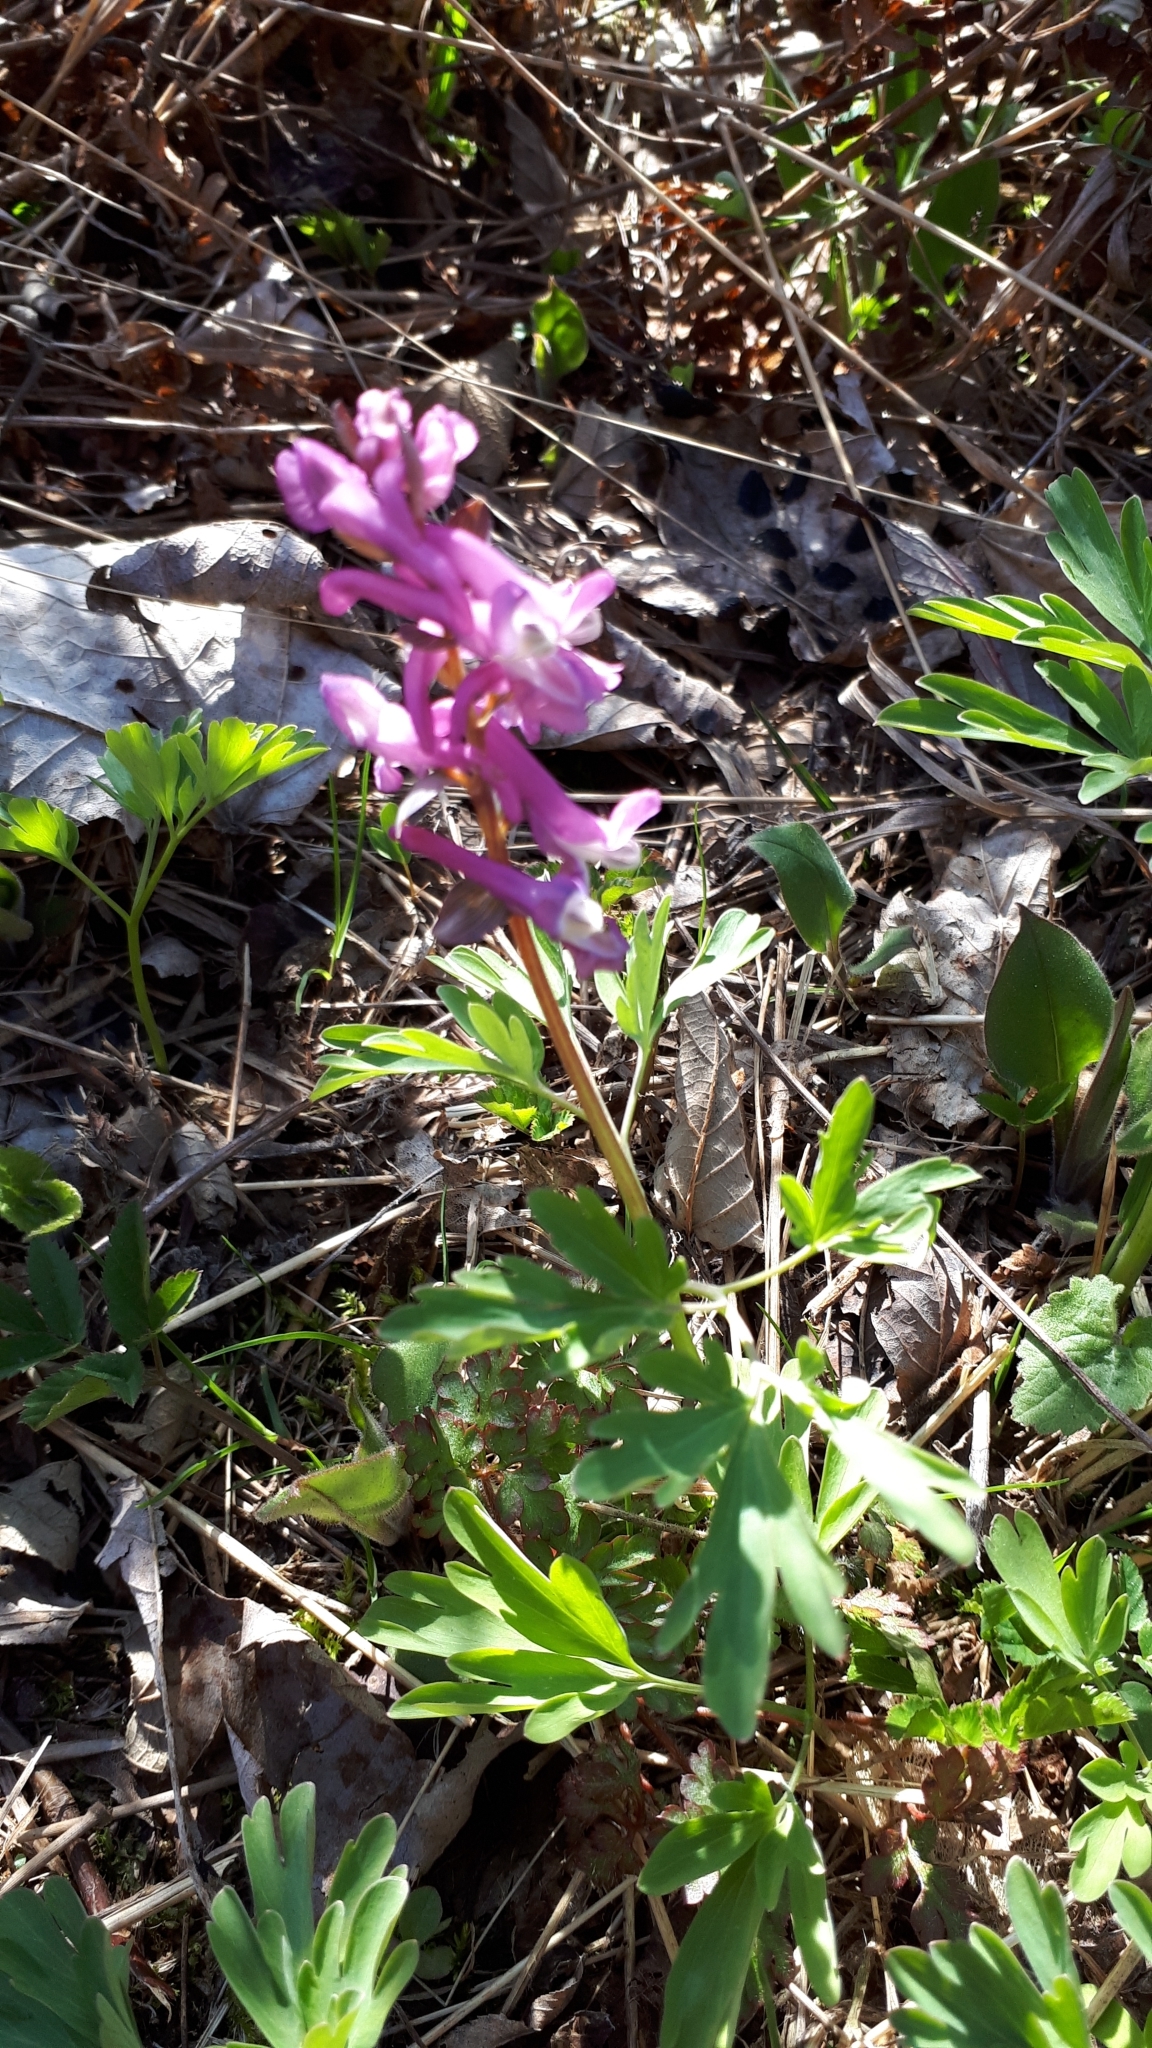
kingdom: Plantae
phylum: Tracheophyta
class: Magnoliopsida
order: Ranunculales
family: Papaveraceae
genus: Corydalis
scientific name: Corydalis cava
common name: Hollowroot
